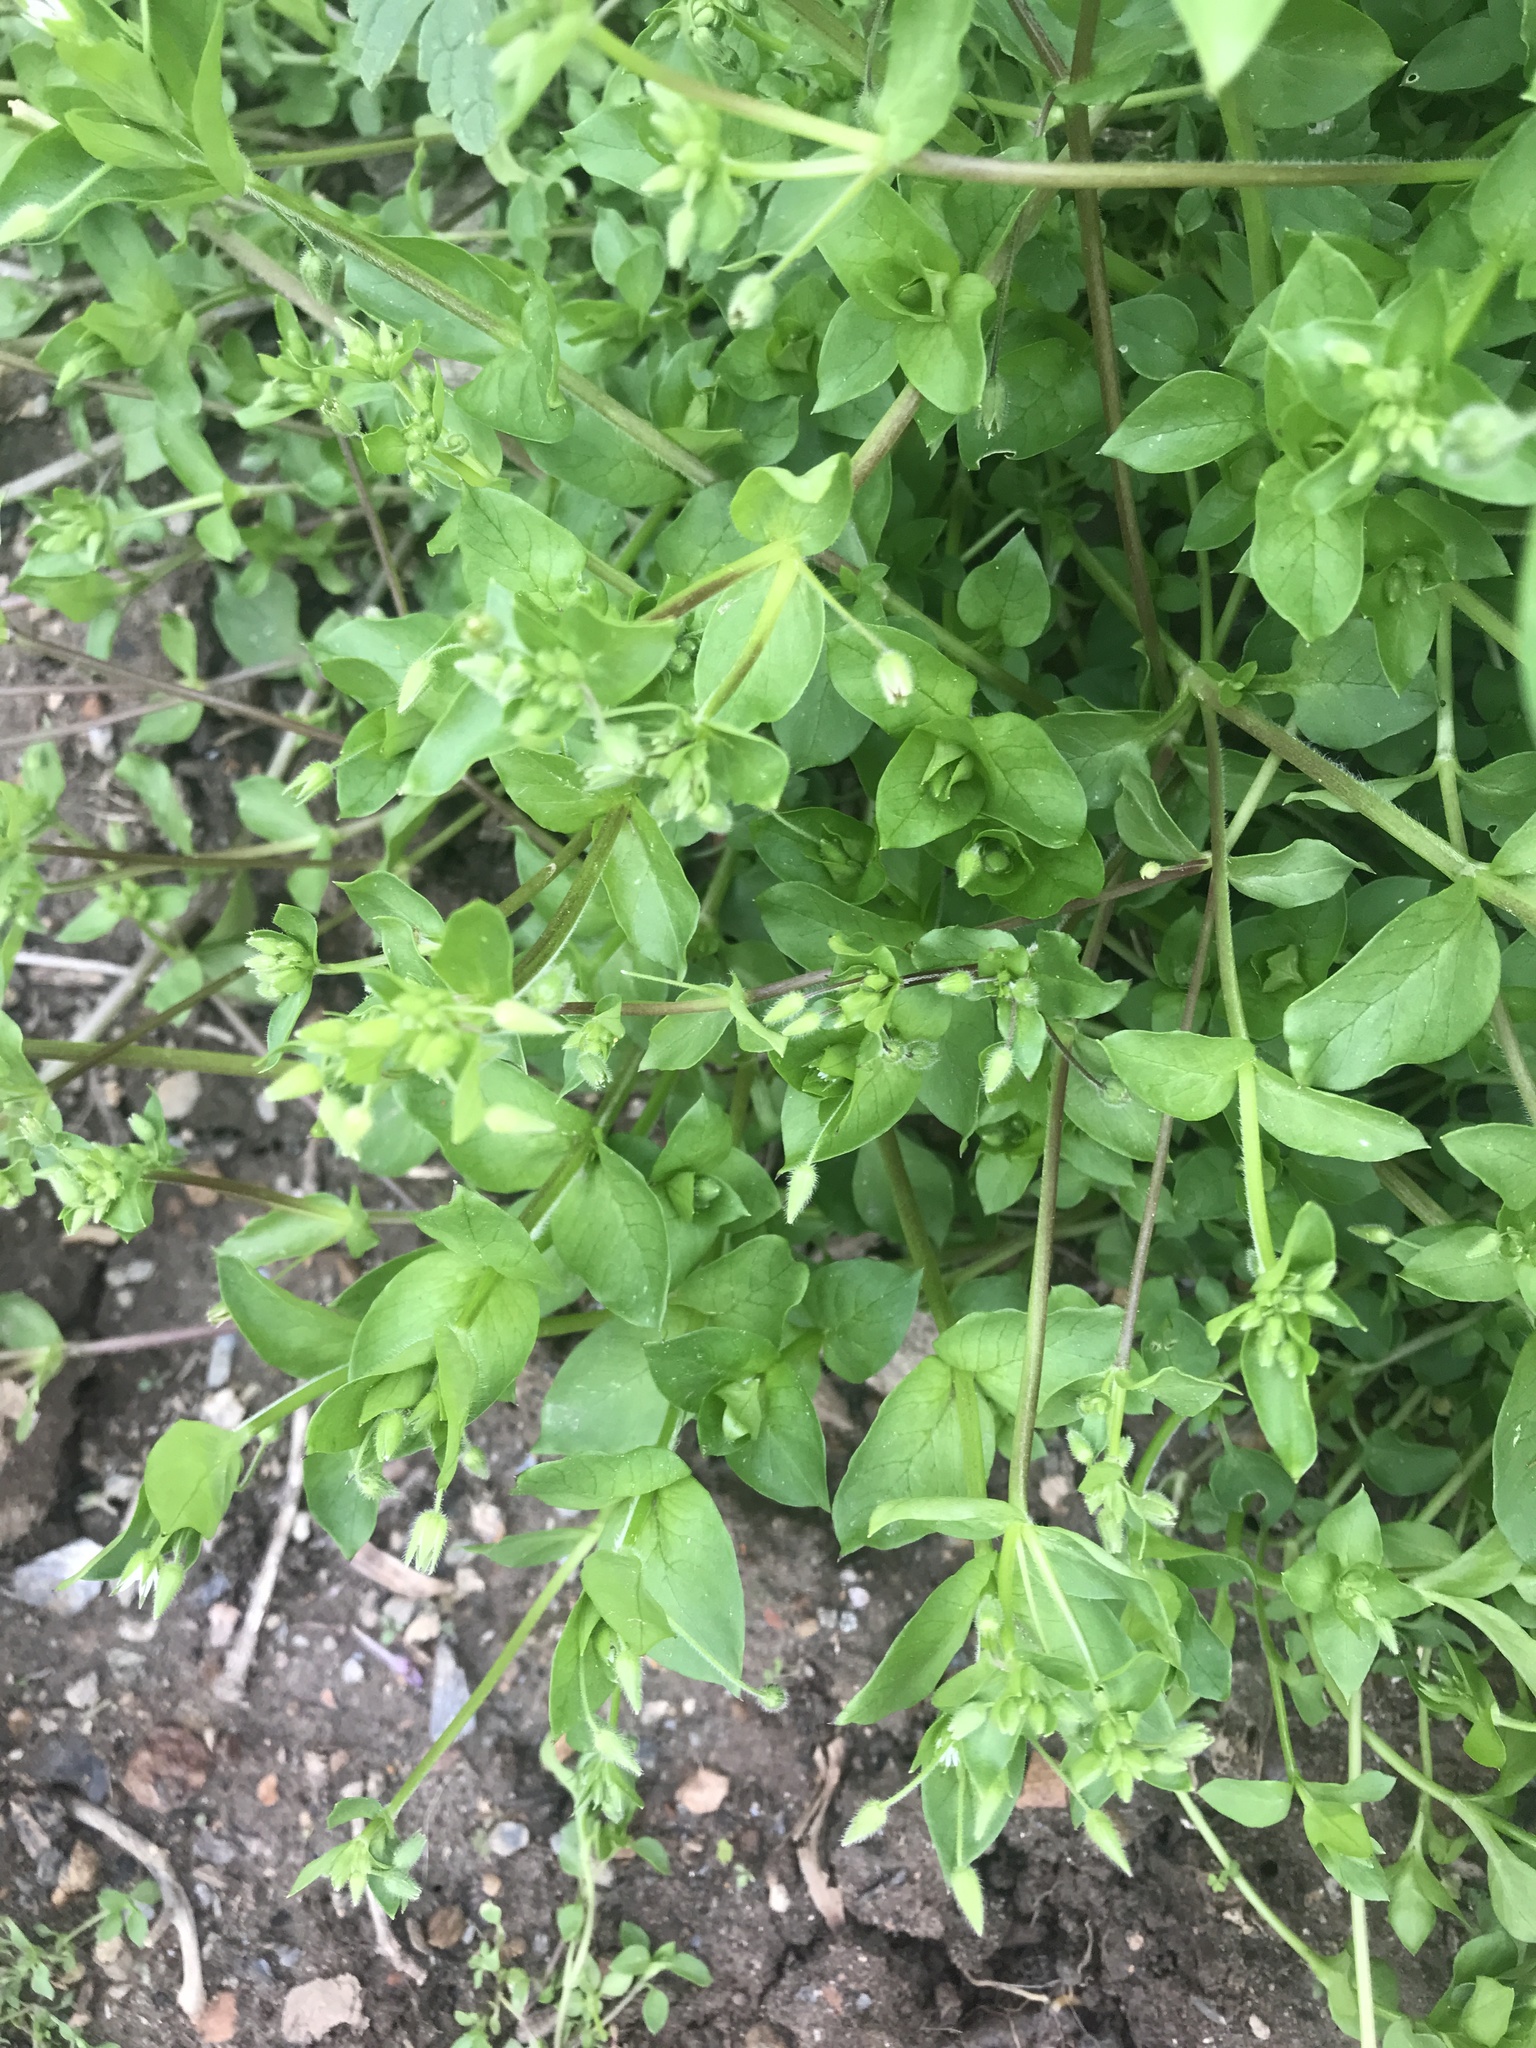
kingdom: Plantae
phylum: Tracheophyta
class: Magnoliopsida
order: Caryophyllales
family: Caryophyllaceae
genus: Stellaria
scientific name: Stellaria media
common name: Common chickweed
